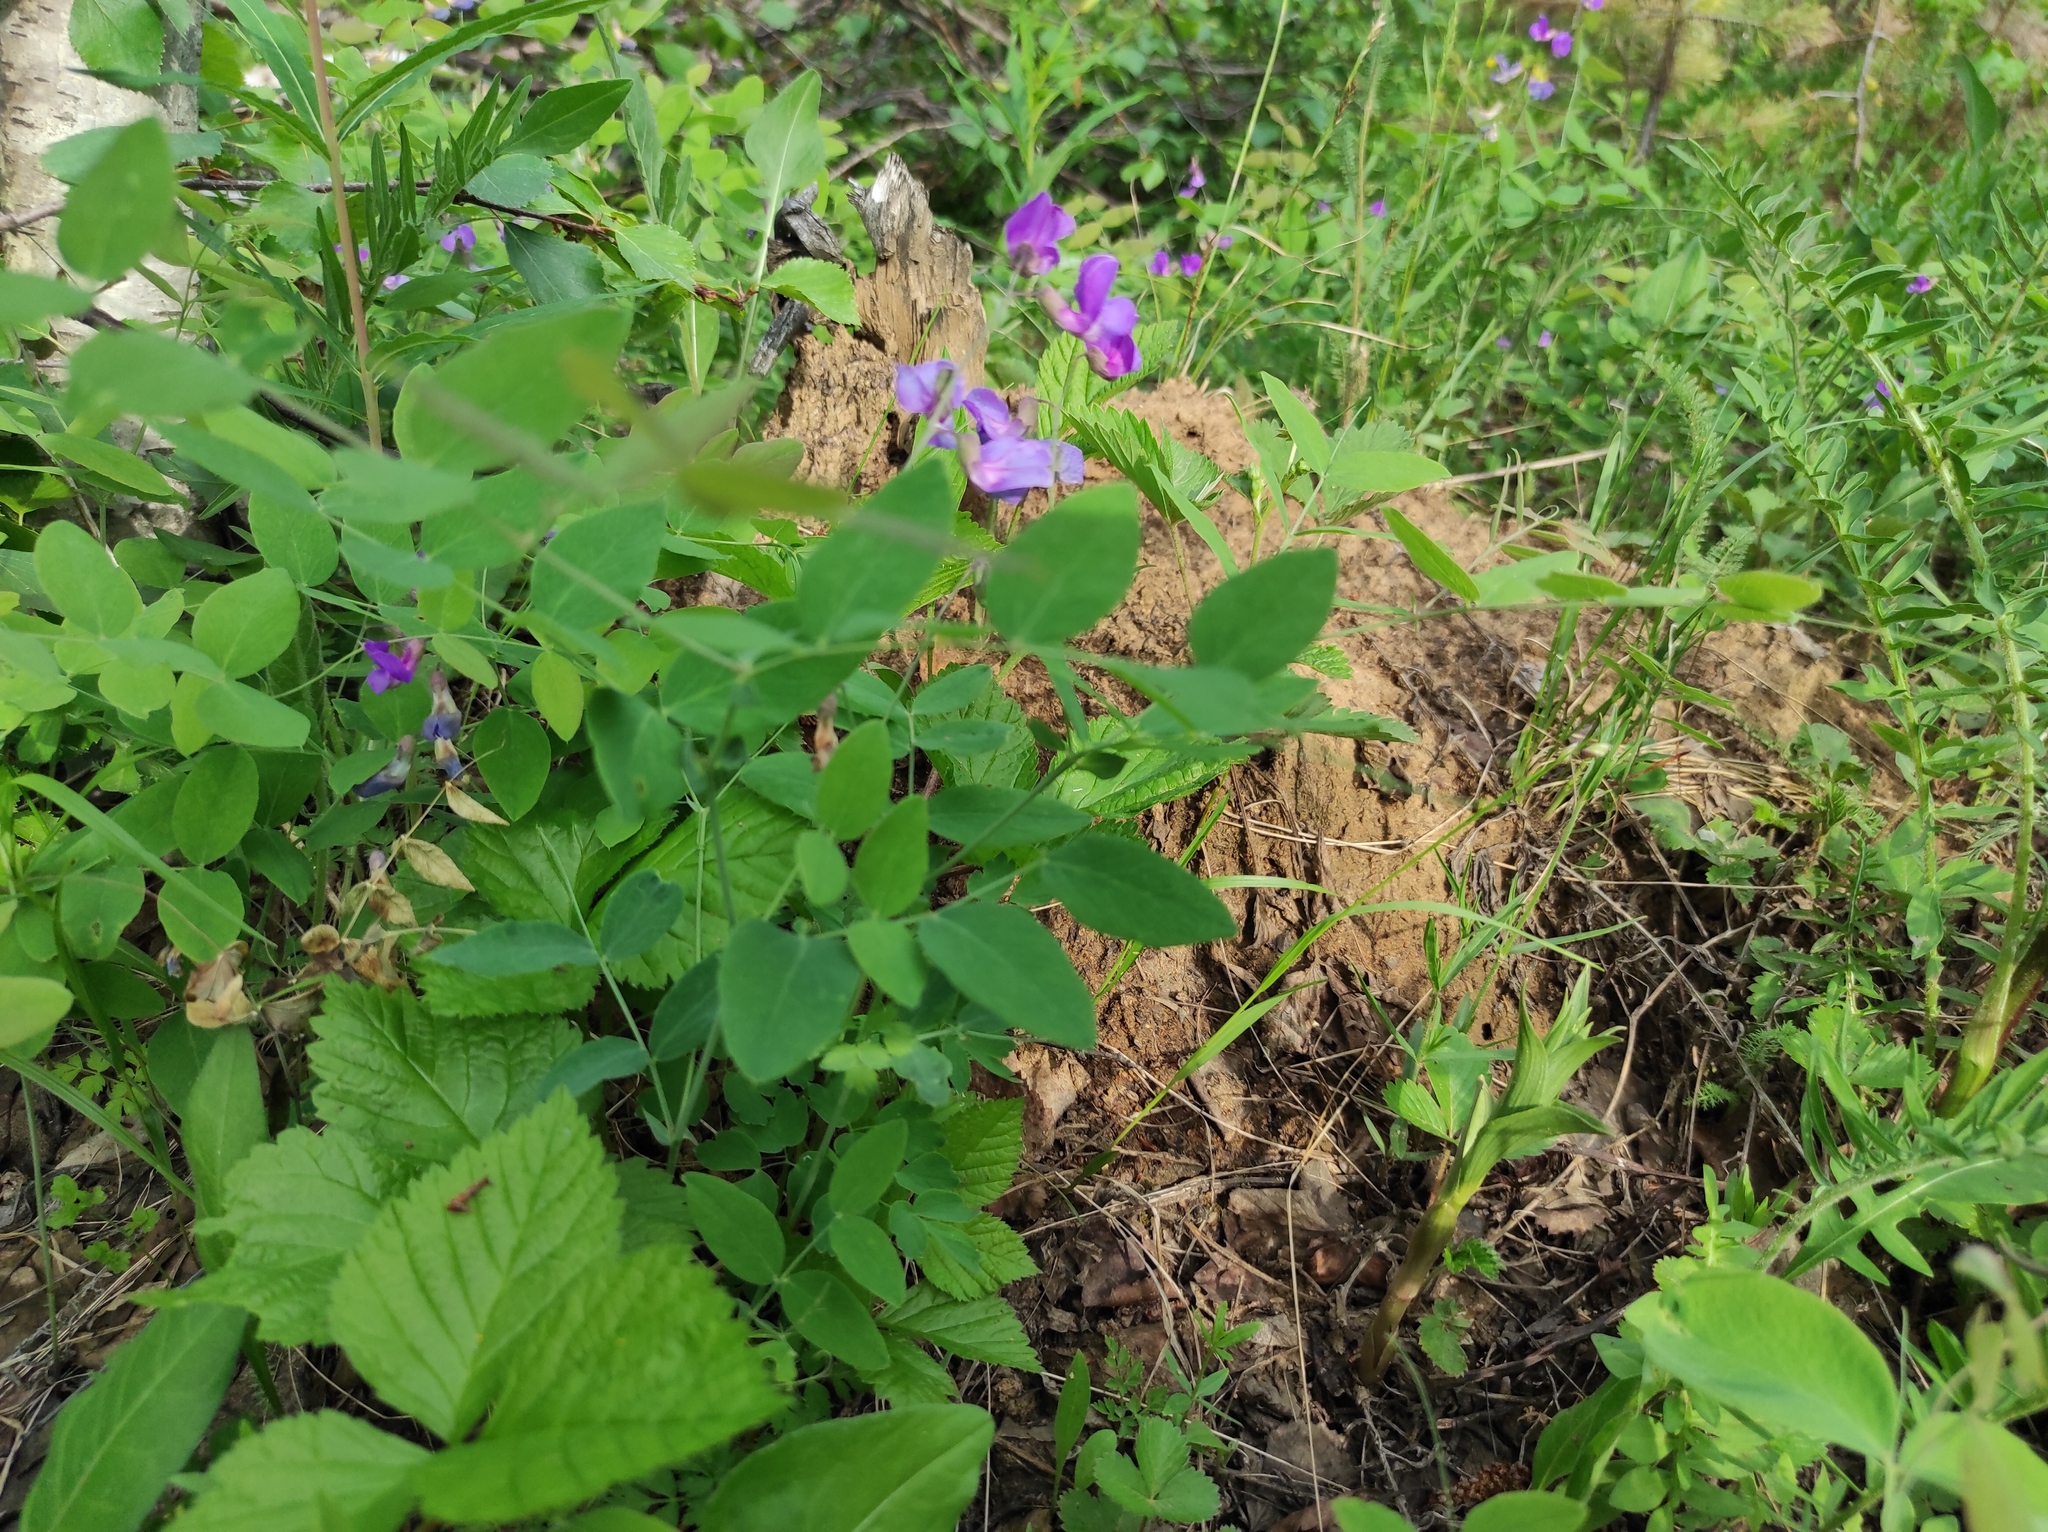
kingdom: Plantae
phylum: Tracheophyta
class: Magnoliopsida
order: Fabales
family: Fabaceae
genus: Lathyrus
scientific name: Lathyrus humilis
